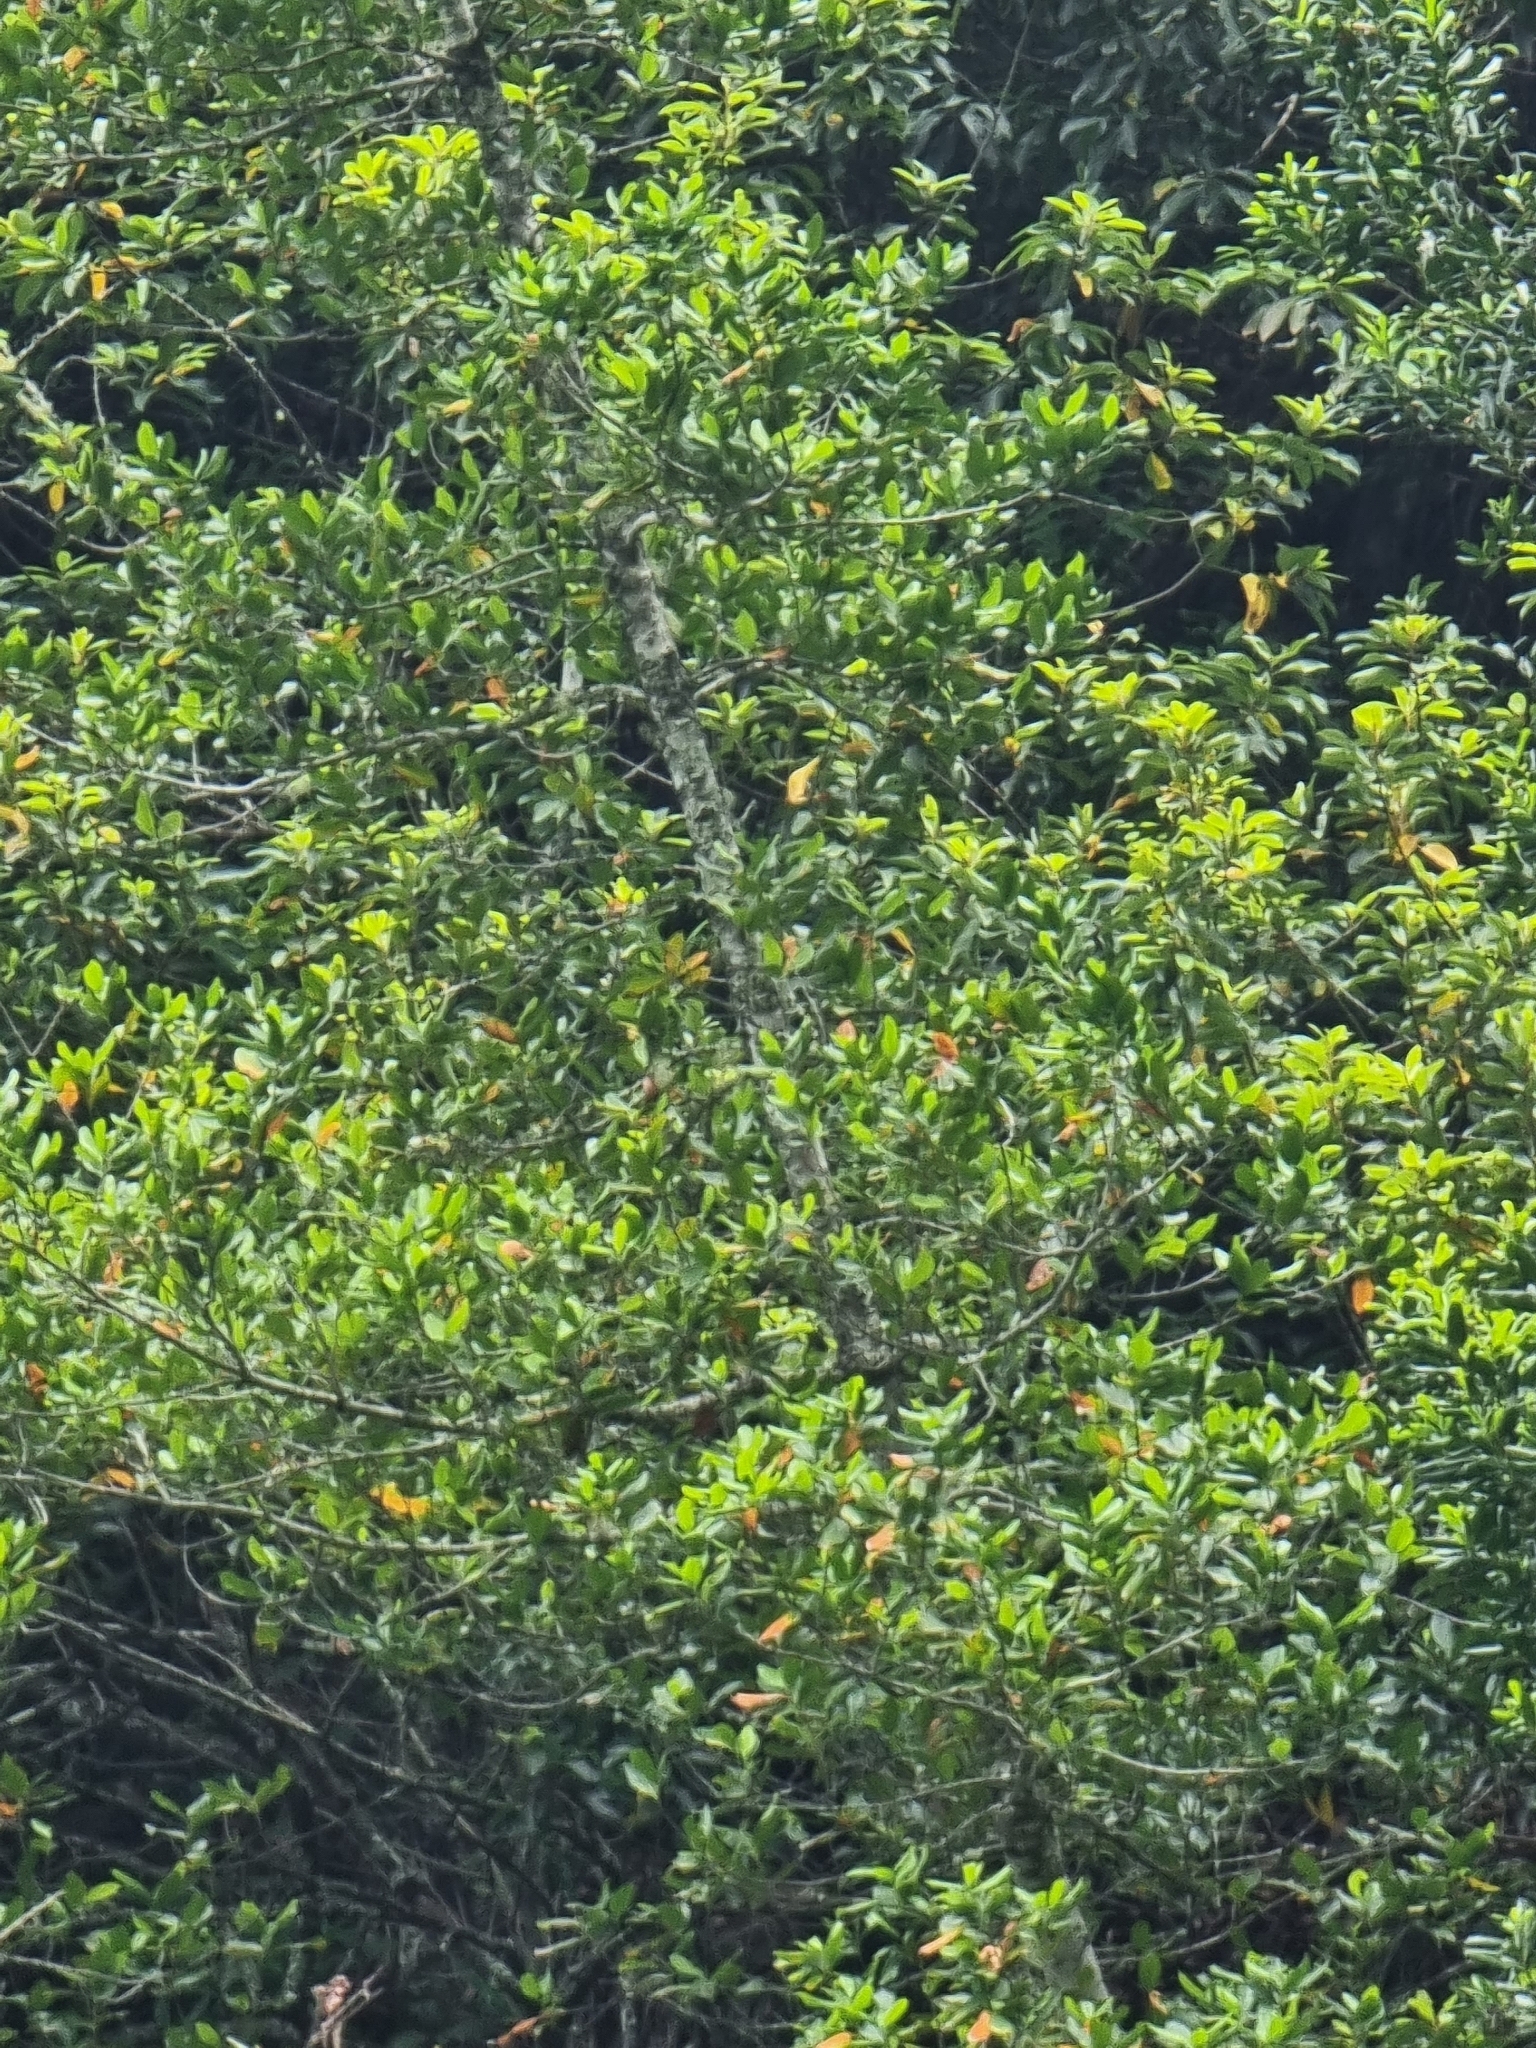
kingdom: Plantae
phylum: Tracheophyta
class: Magnoliopsida
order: Laurales
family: Lauraceae
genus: Mespilodaphne
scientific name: Mespilodaphne foetens
